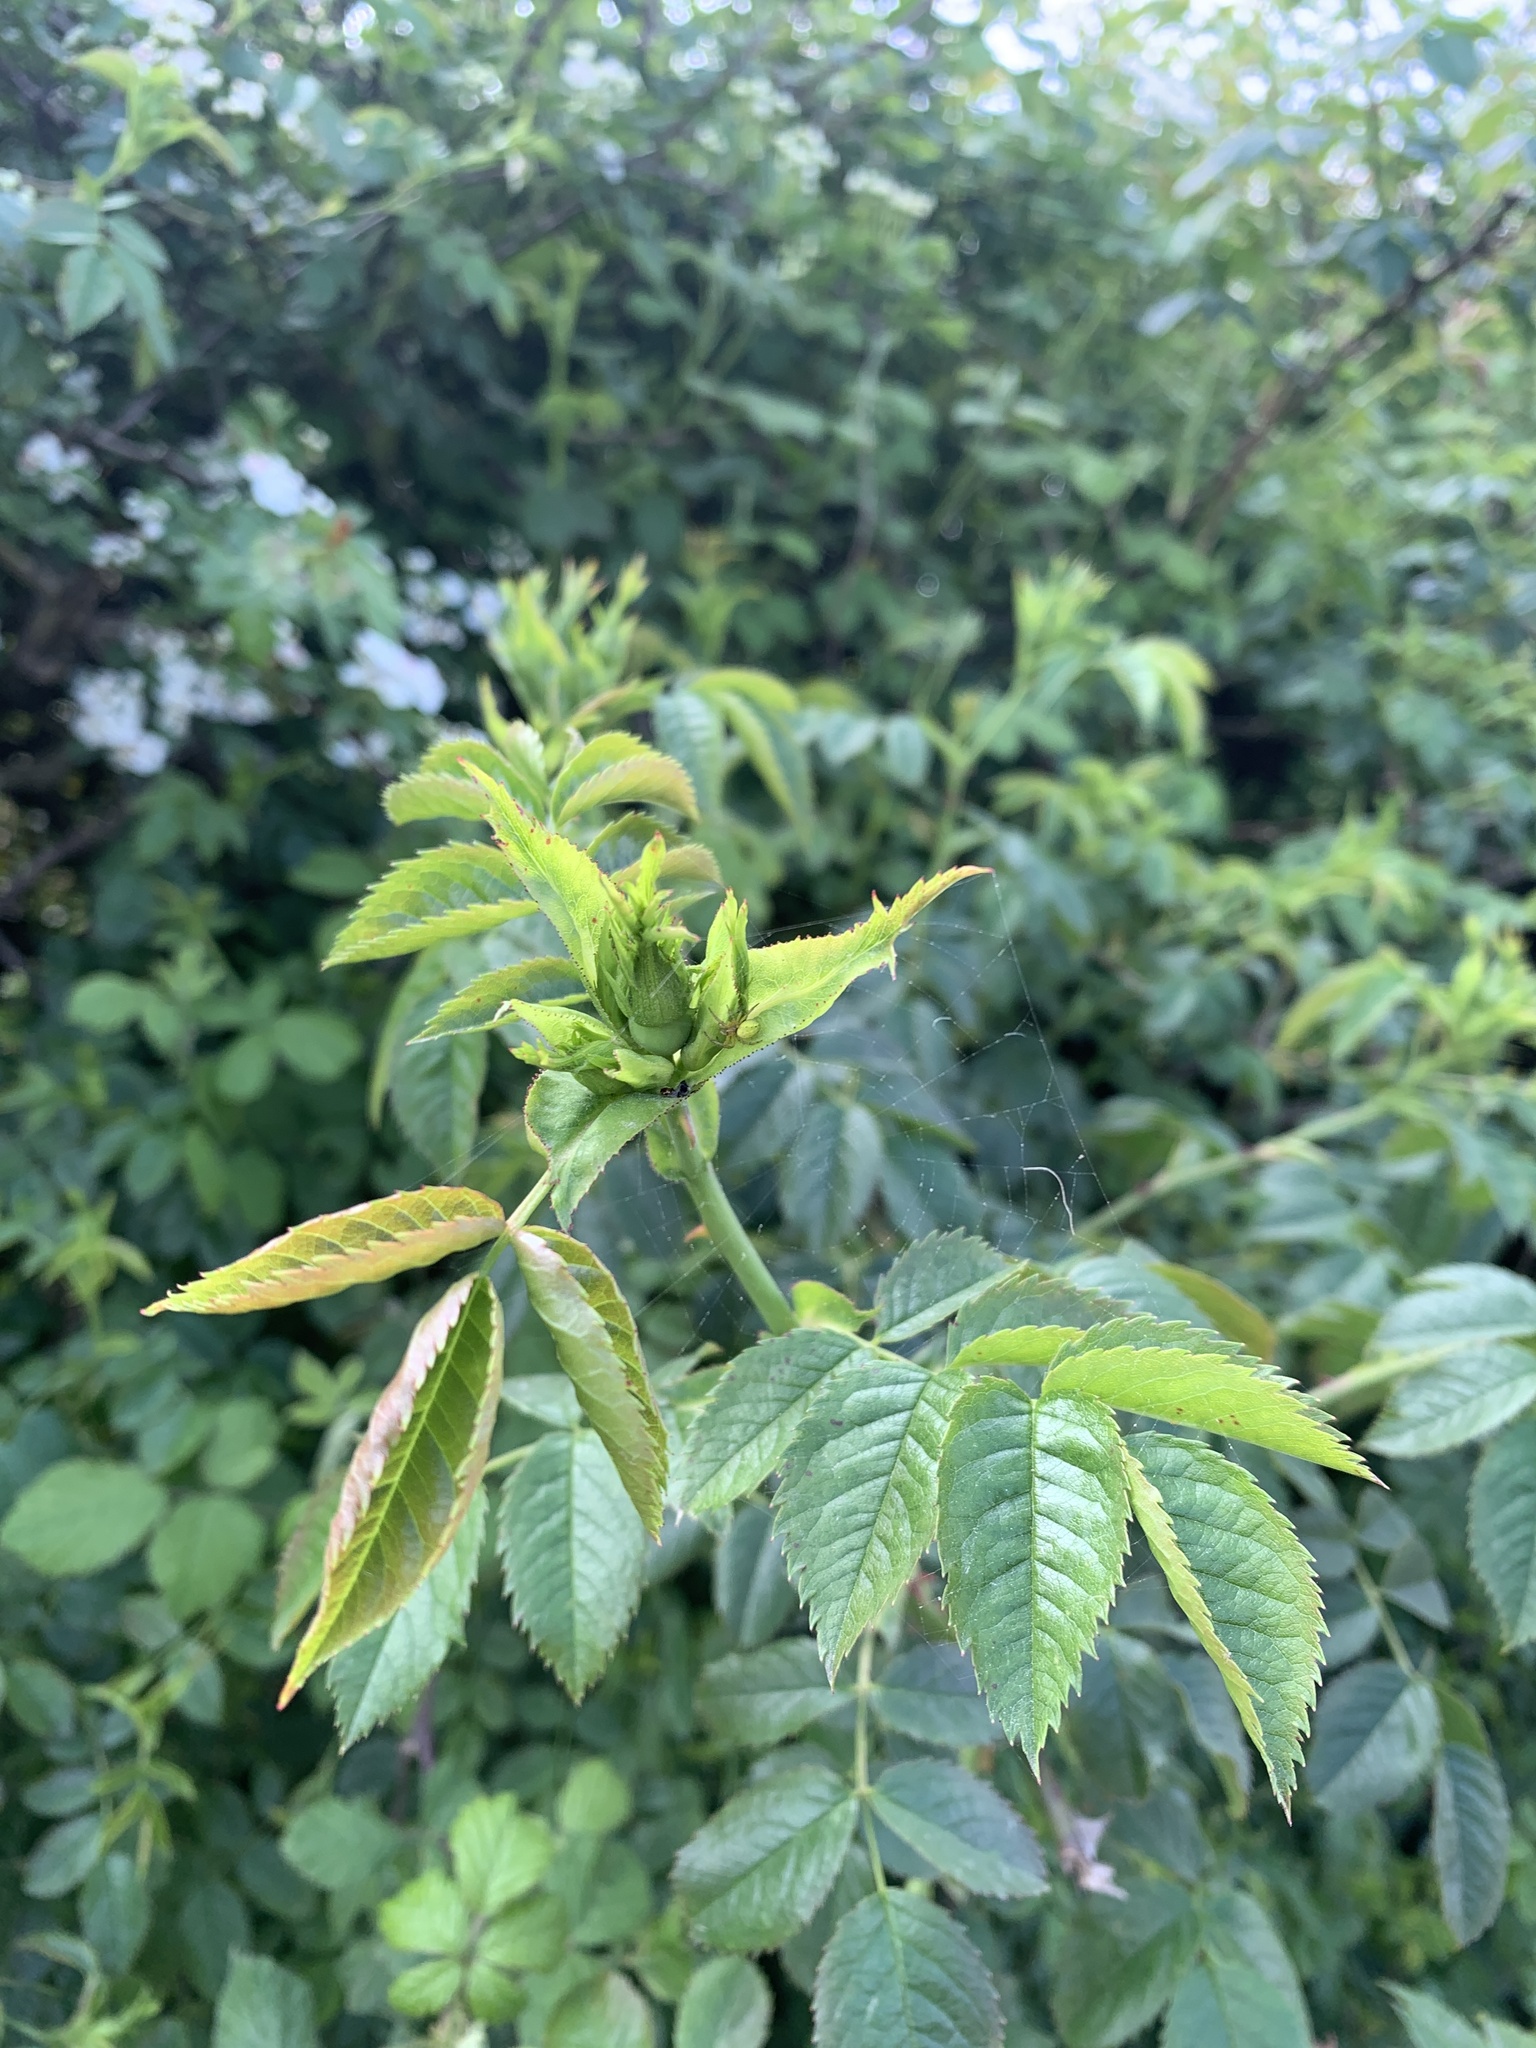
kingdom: Plantae
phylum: Tracheophyta
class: Magnoliopsida
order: Rosales
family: Rosaceae
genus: Rosa
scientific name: Rosa canina
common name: Dog rose
